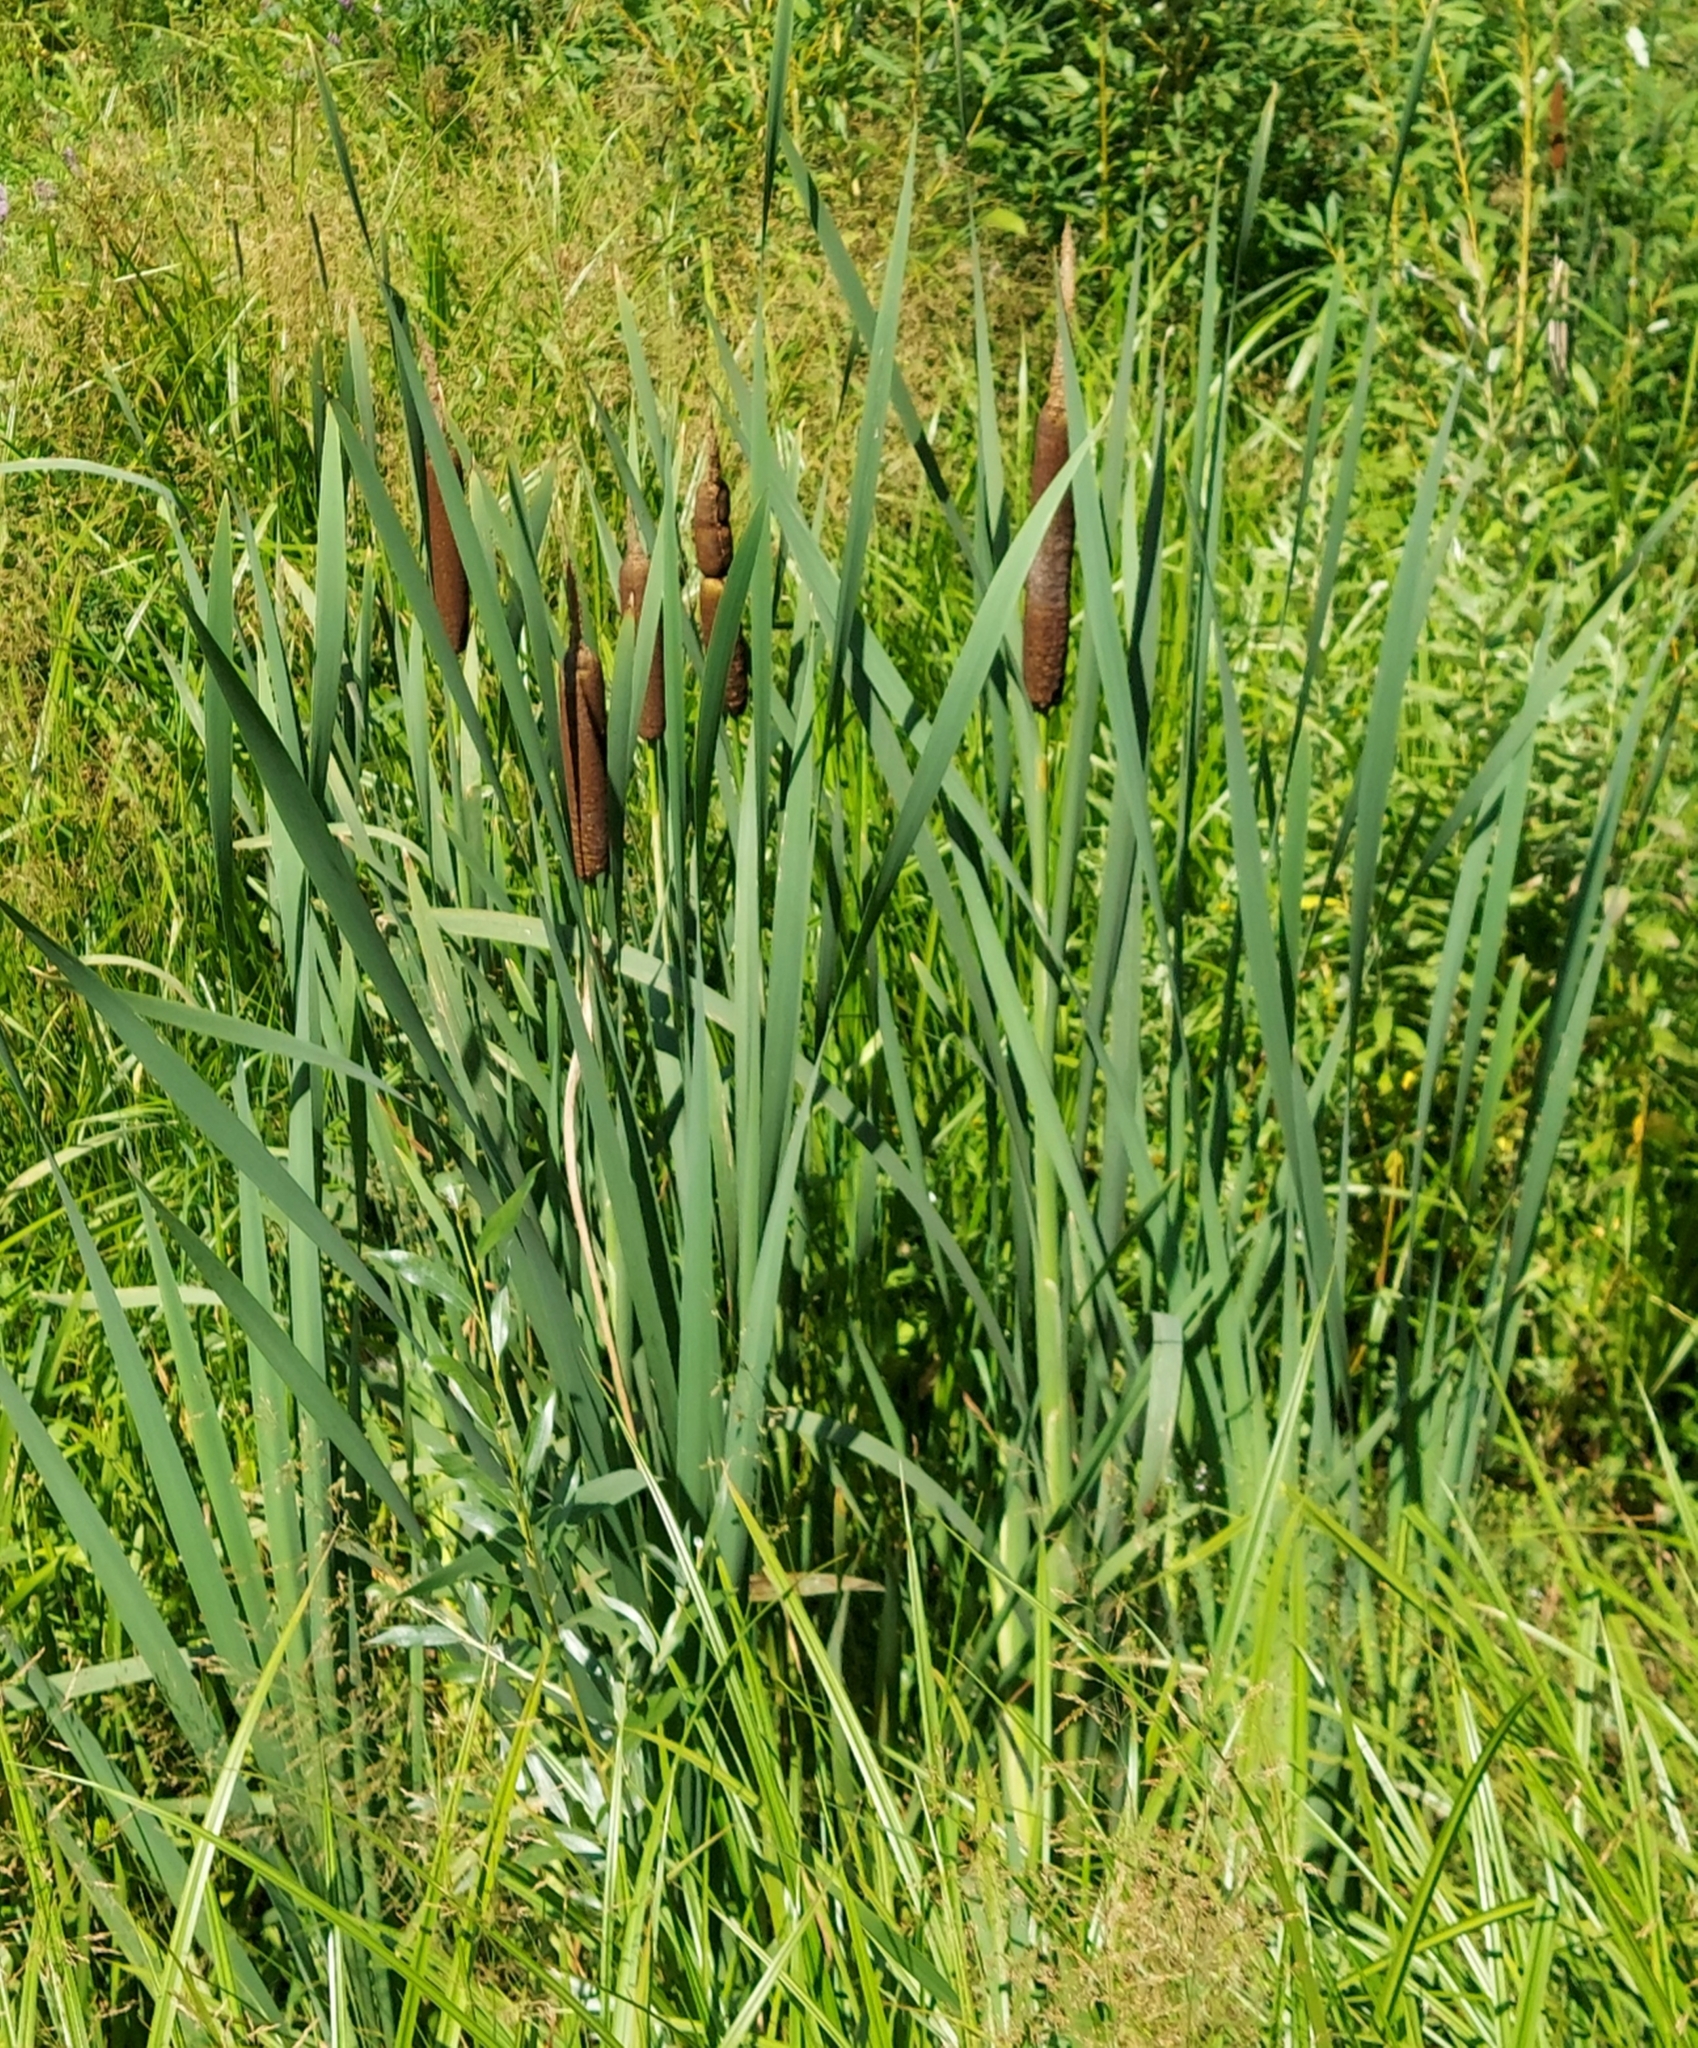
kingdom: Plantae
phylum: Tracheophyta
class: Liliopsida
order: Poales
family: Typhaceae
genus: Typha
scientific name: Typha latifolia
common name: Broadleaf cattail
